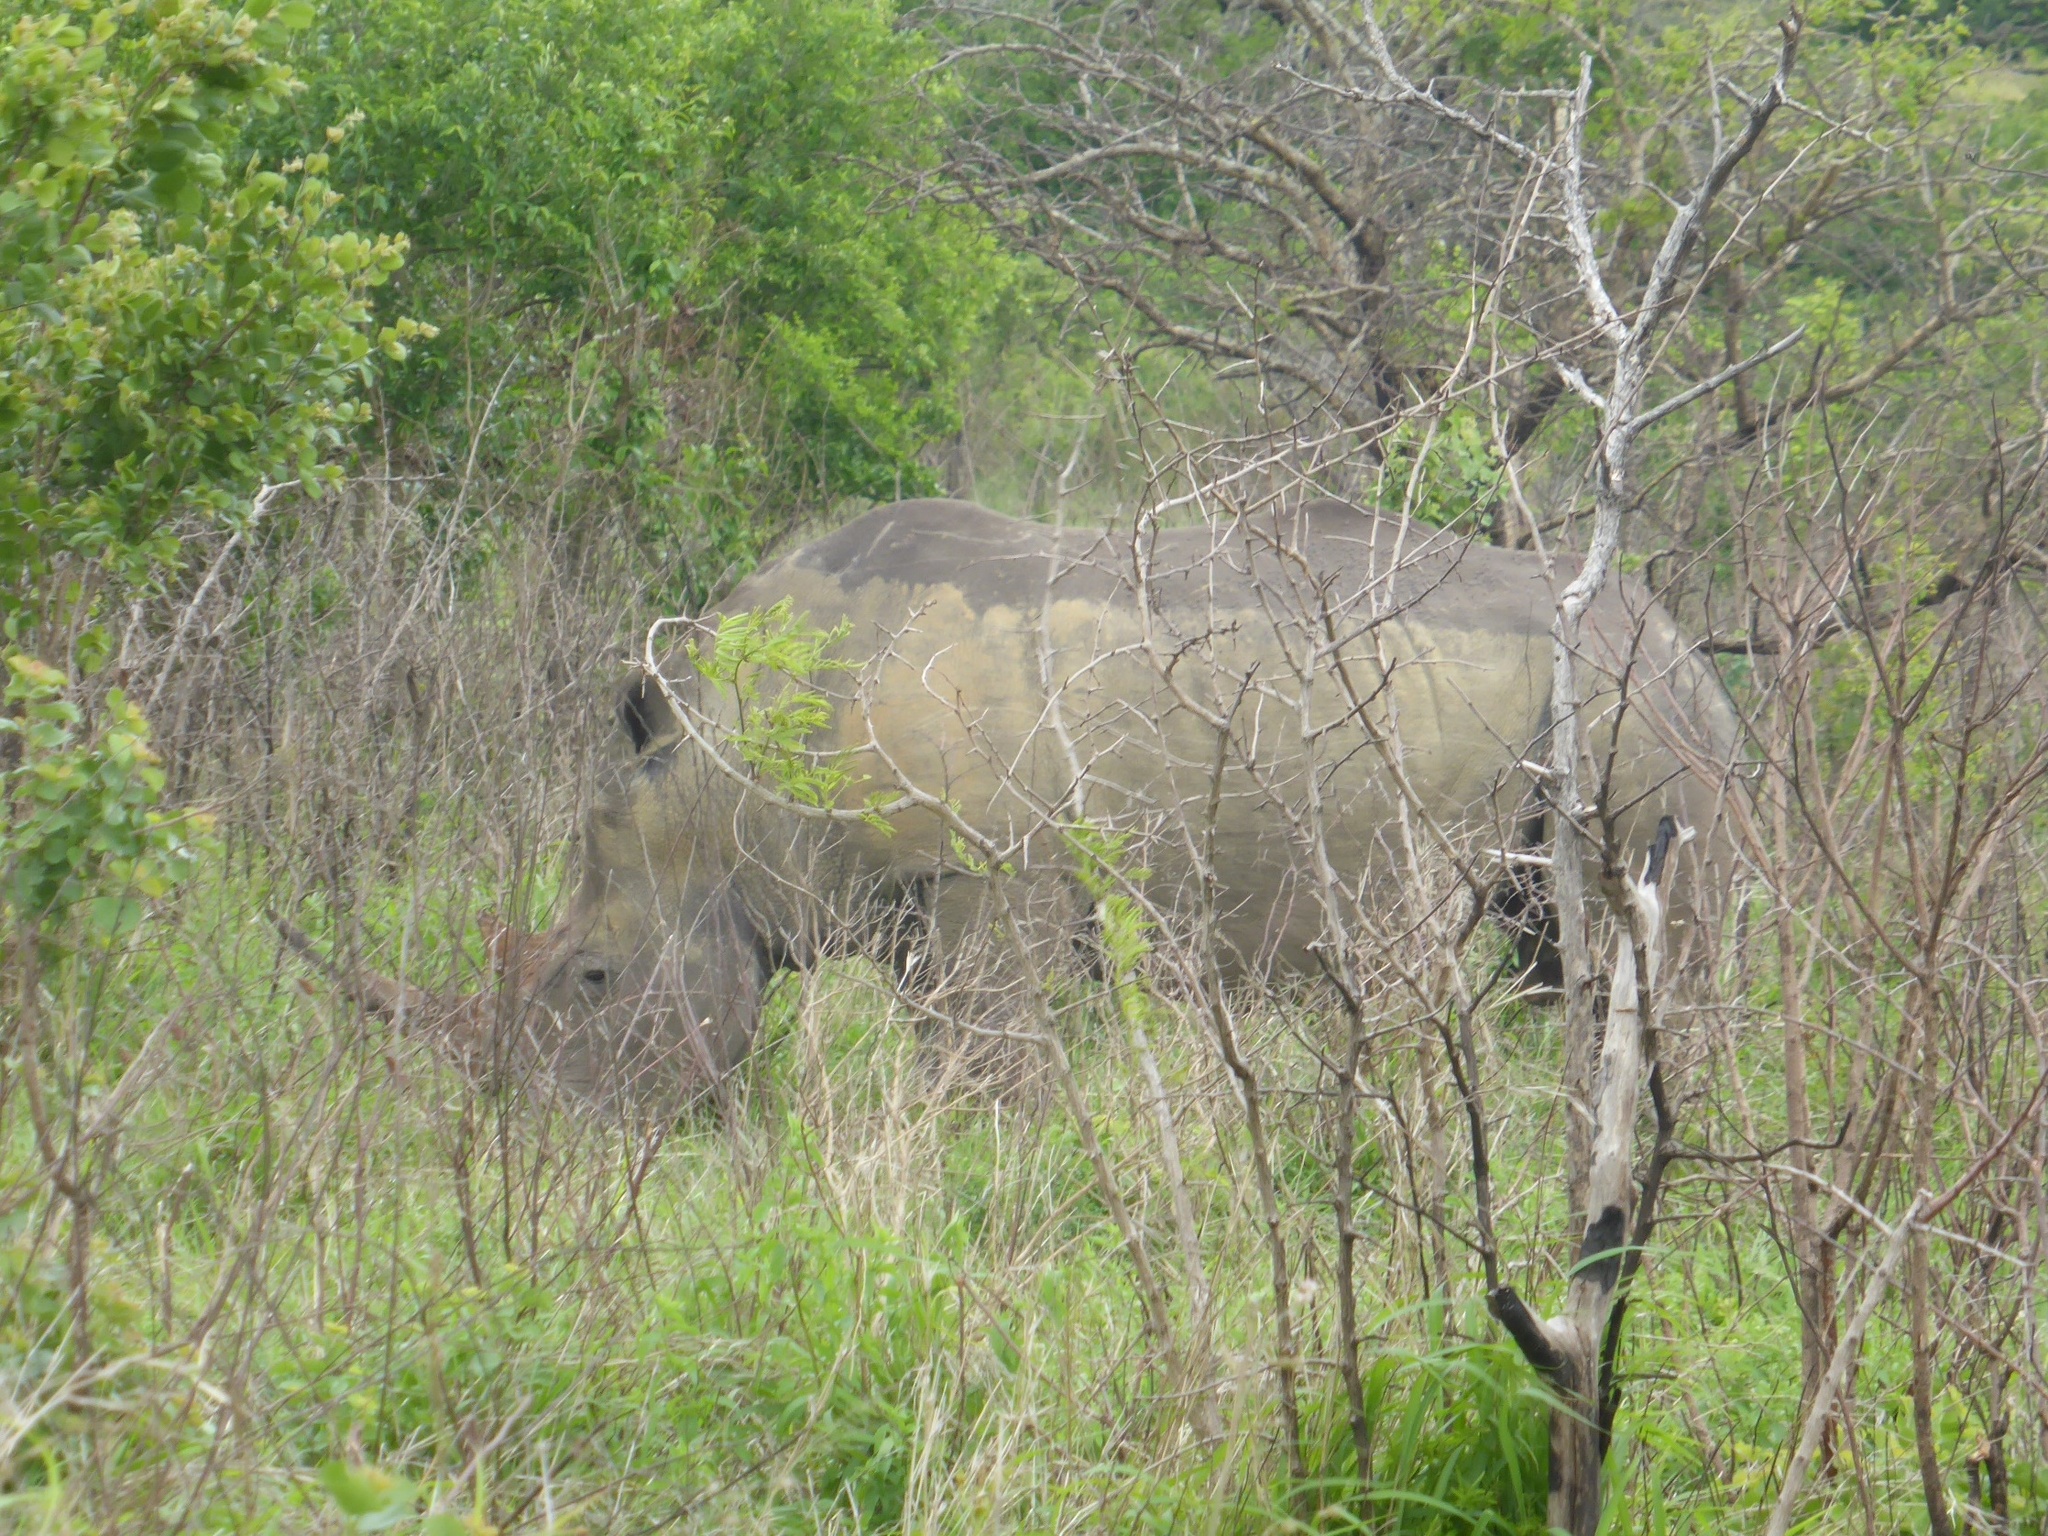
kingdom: Animalia
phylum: Chordata
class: Mammalia
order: Perissodactyla
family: Rhinocerotidae
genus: Ceratotherium
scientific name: Ceratotherium simum
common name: White rhinoceros
